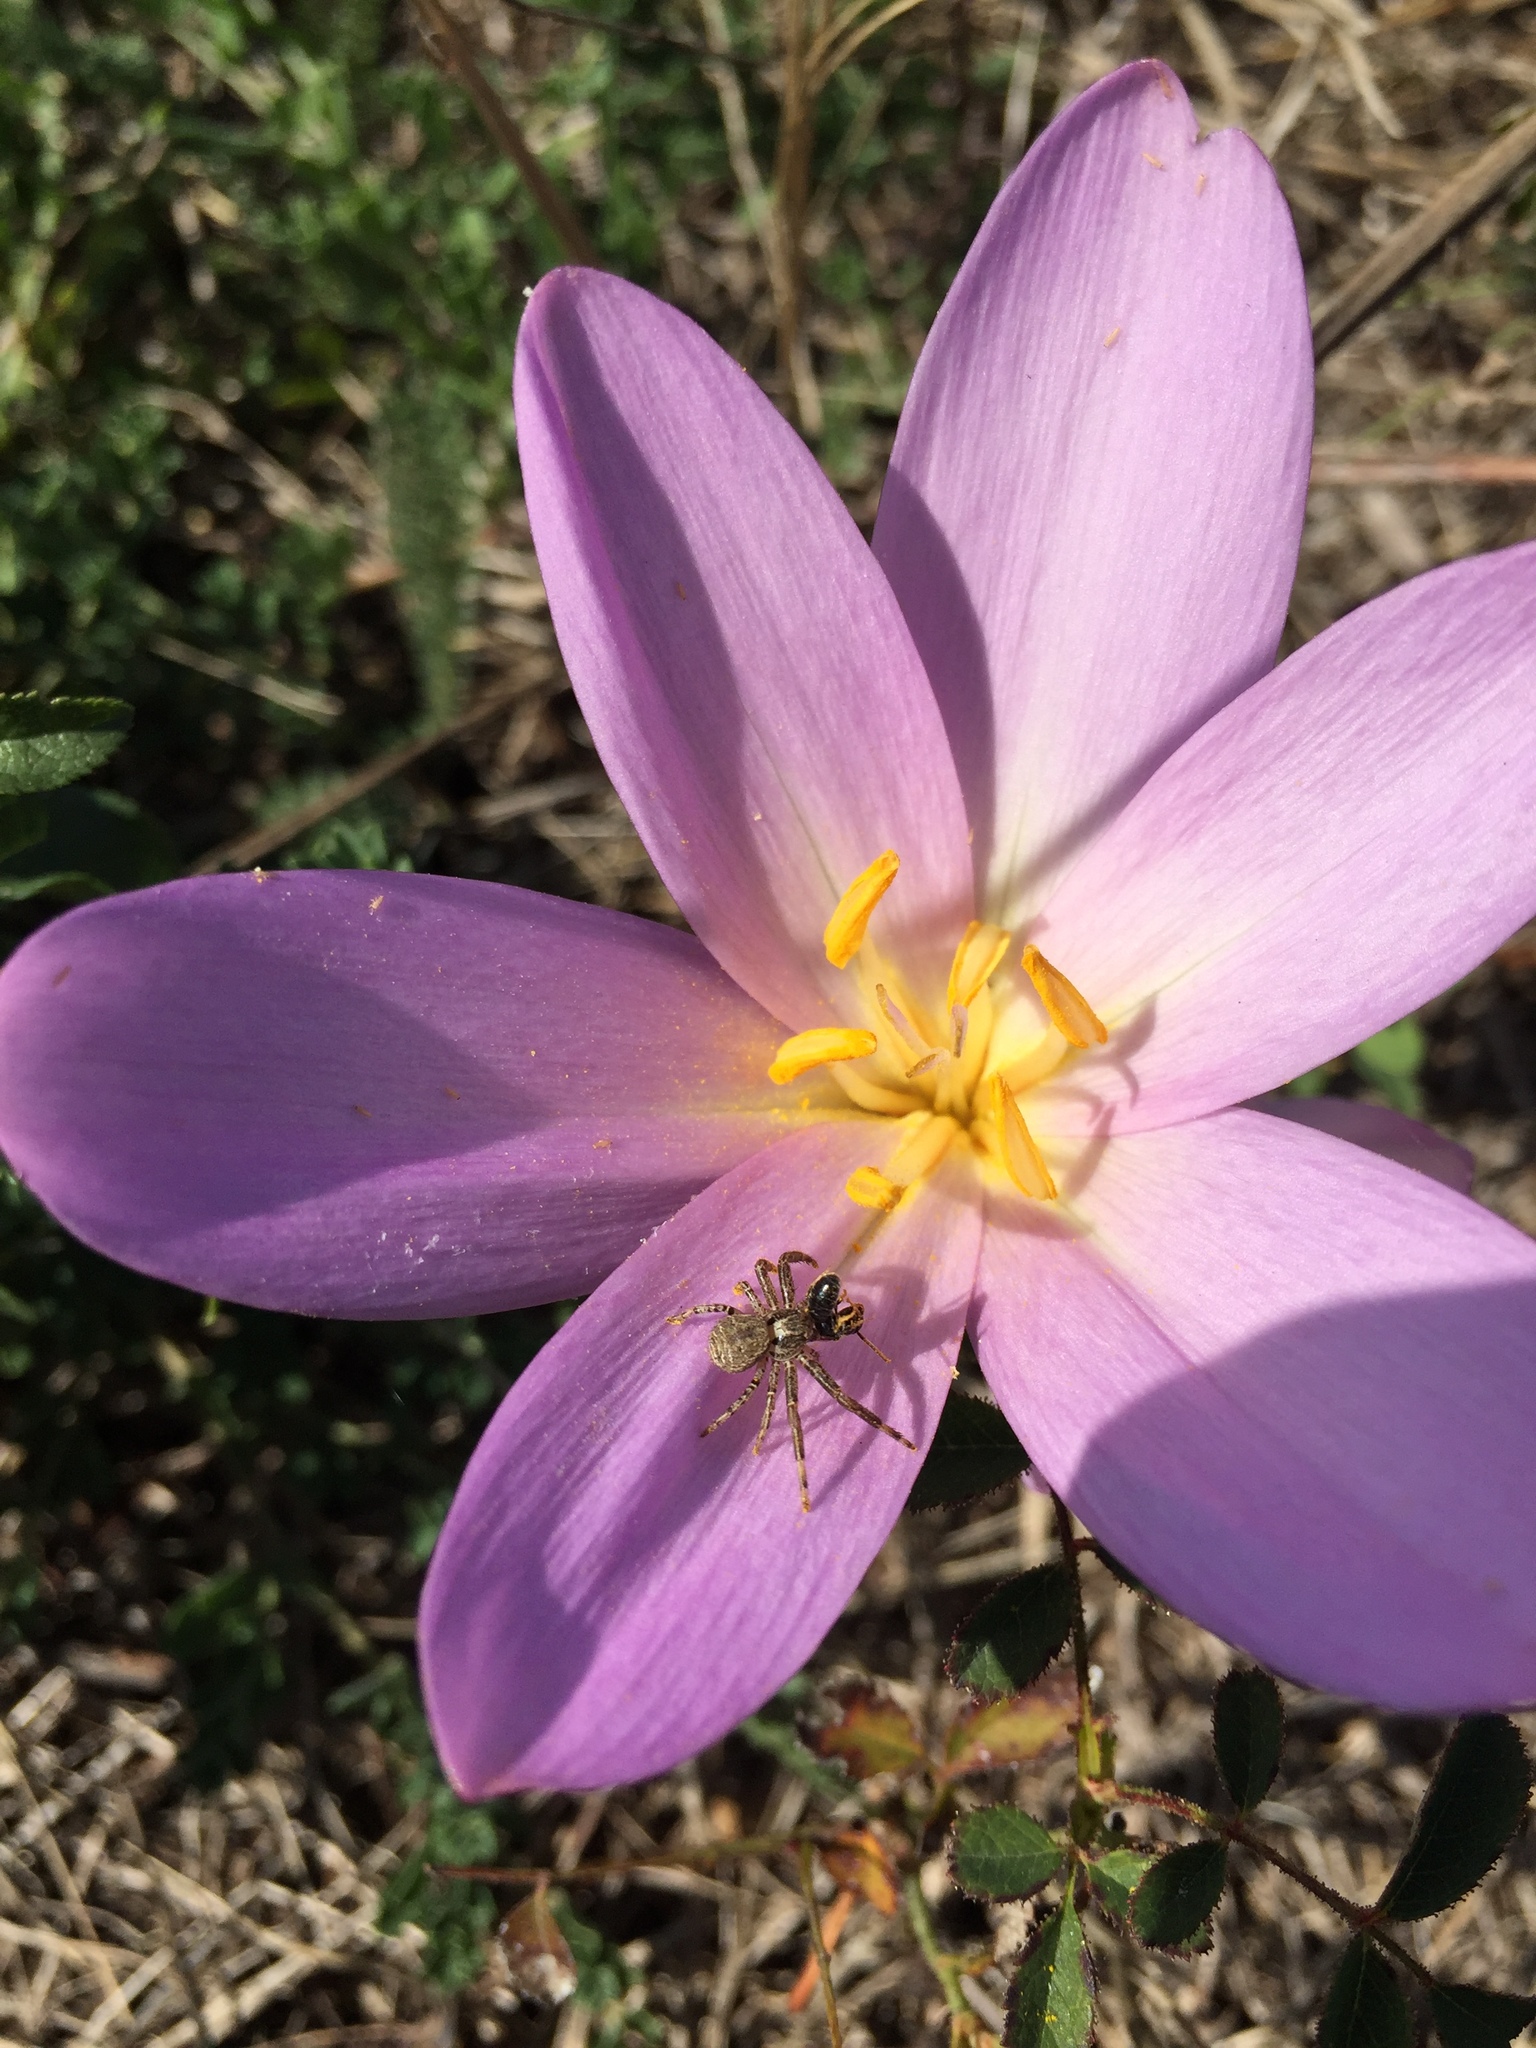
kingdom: Plantae
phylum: Tracheophyta
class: Liliopsida
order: Liliales
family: Colchicaceae
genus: Colchicum
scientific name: Colchicum autumnale
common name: Autumn crocus
